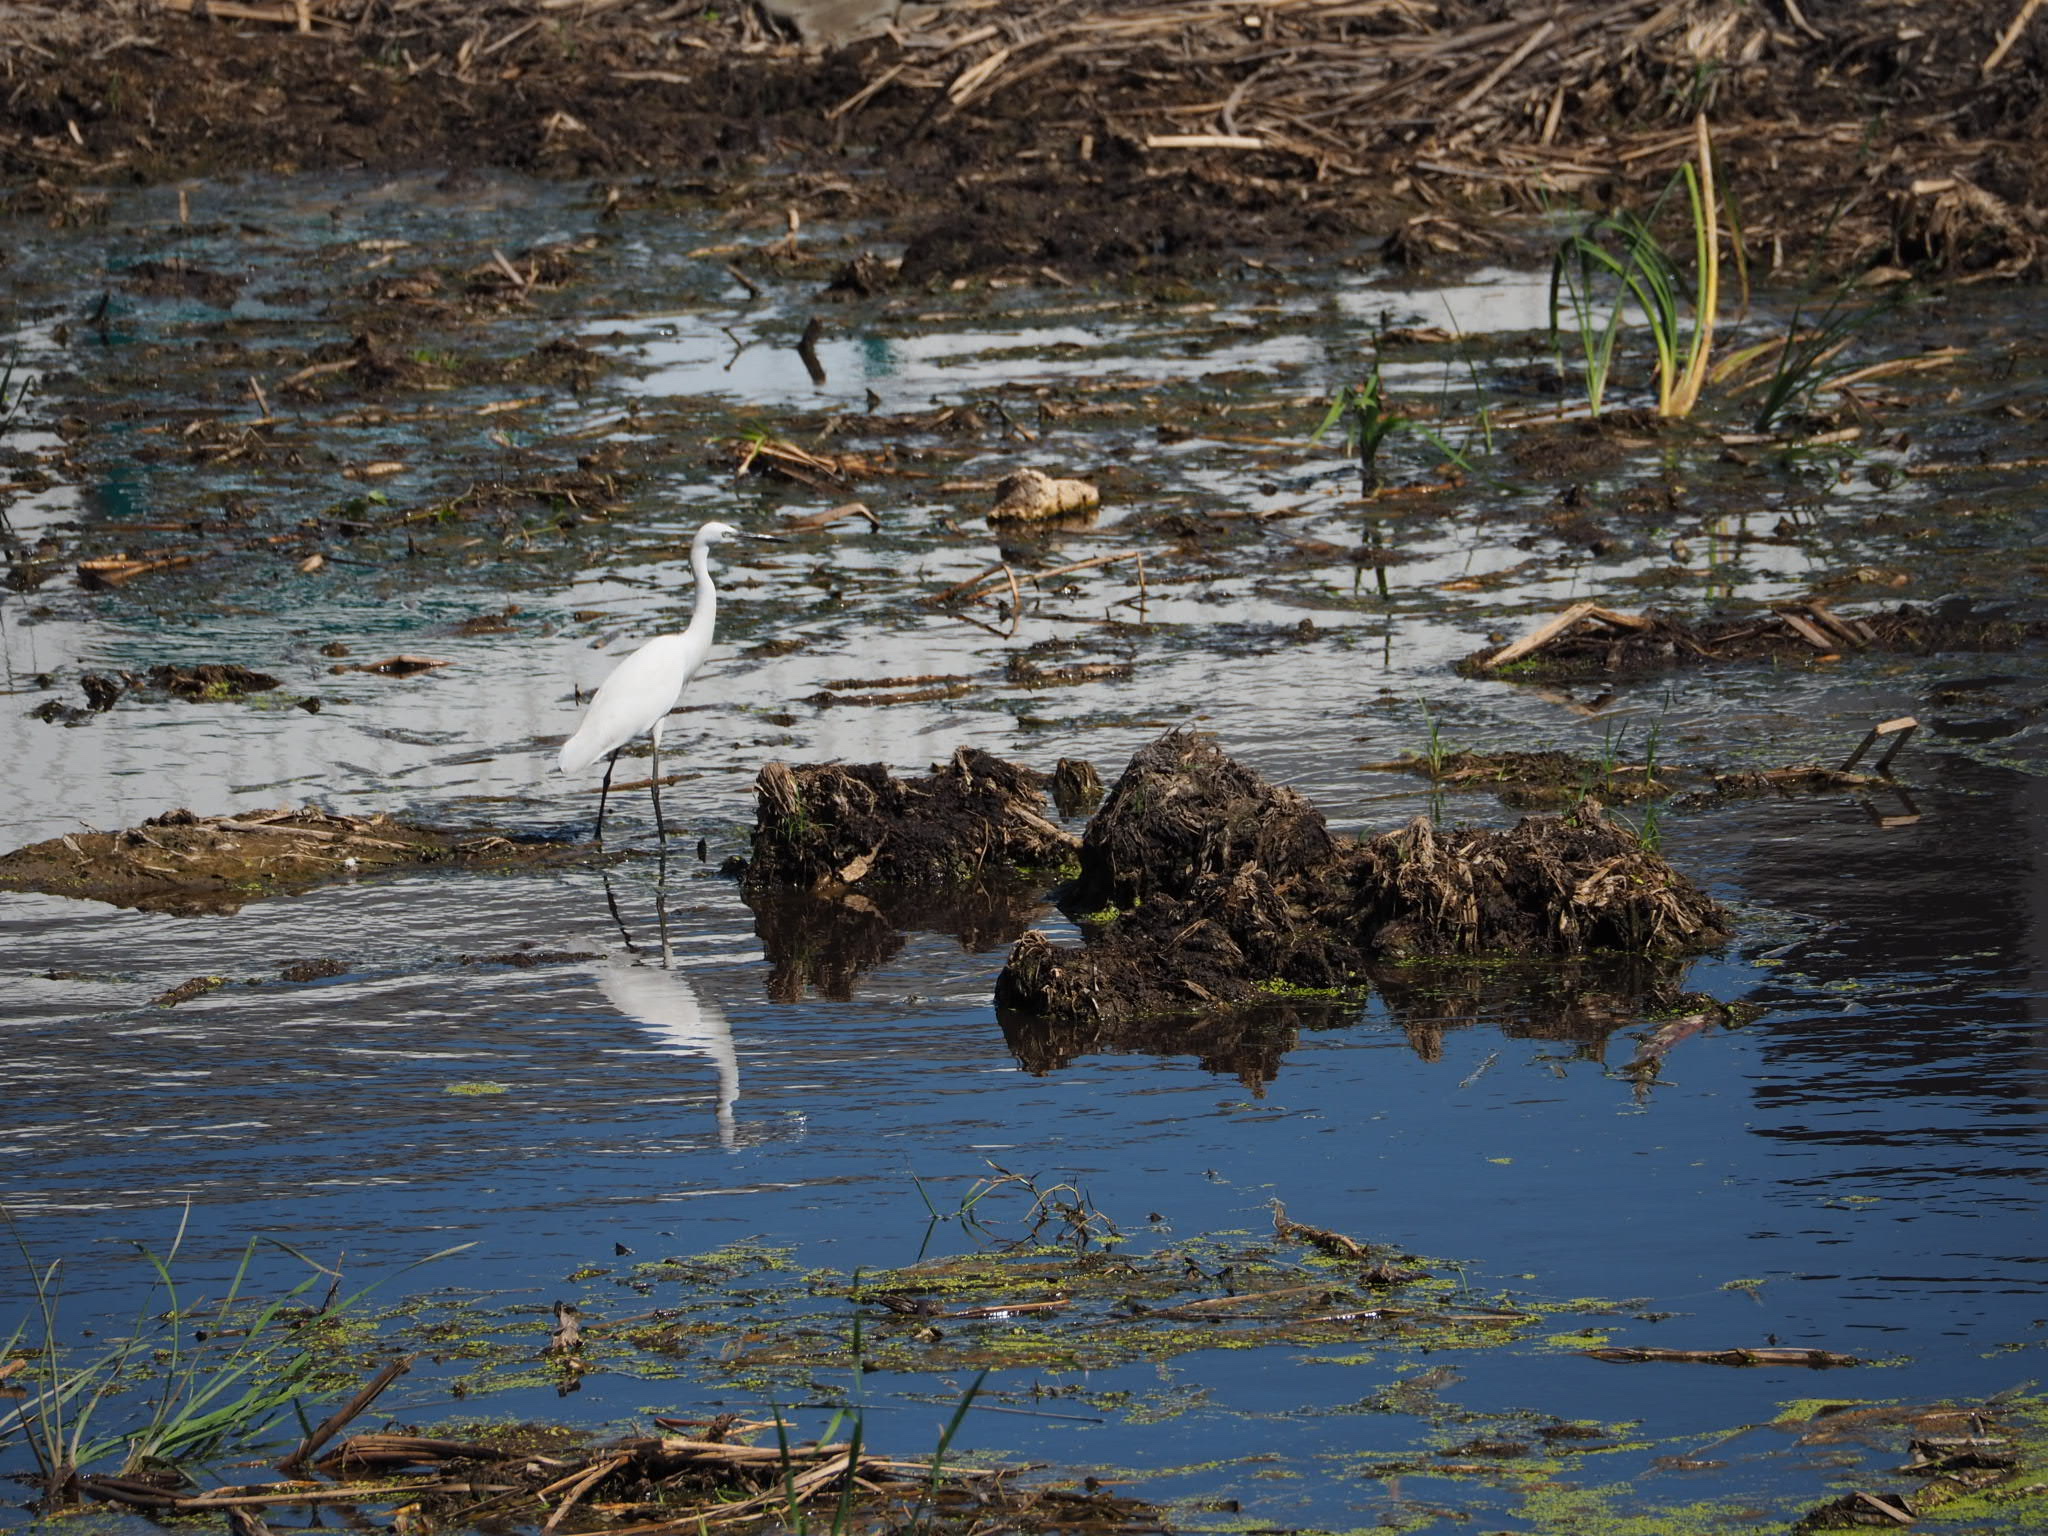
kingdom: Animalia
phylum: Chordata
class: Aves
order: Pelecaniformes
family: Ardeidae
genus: Egretta
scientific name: Egretta garzetta
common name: Little egret
